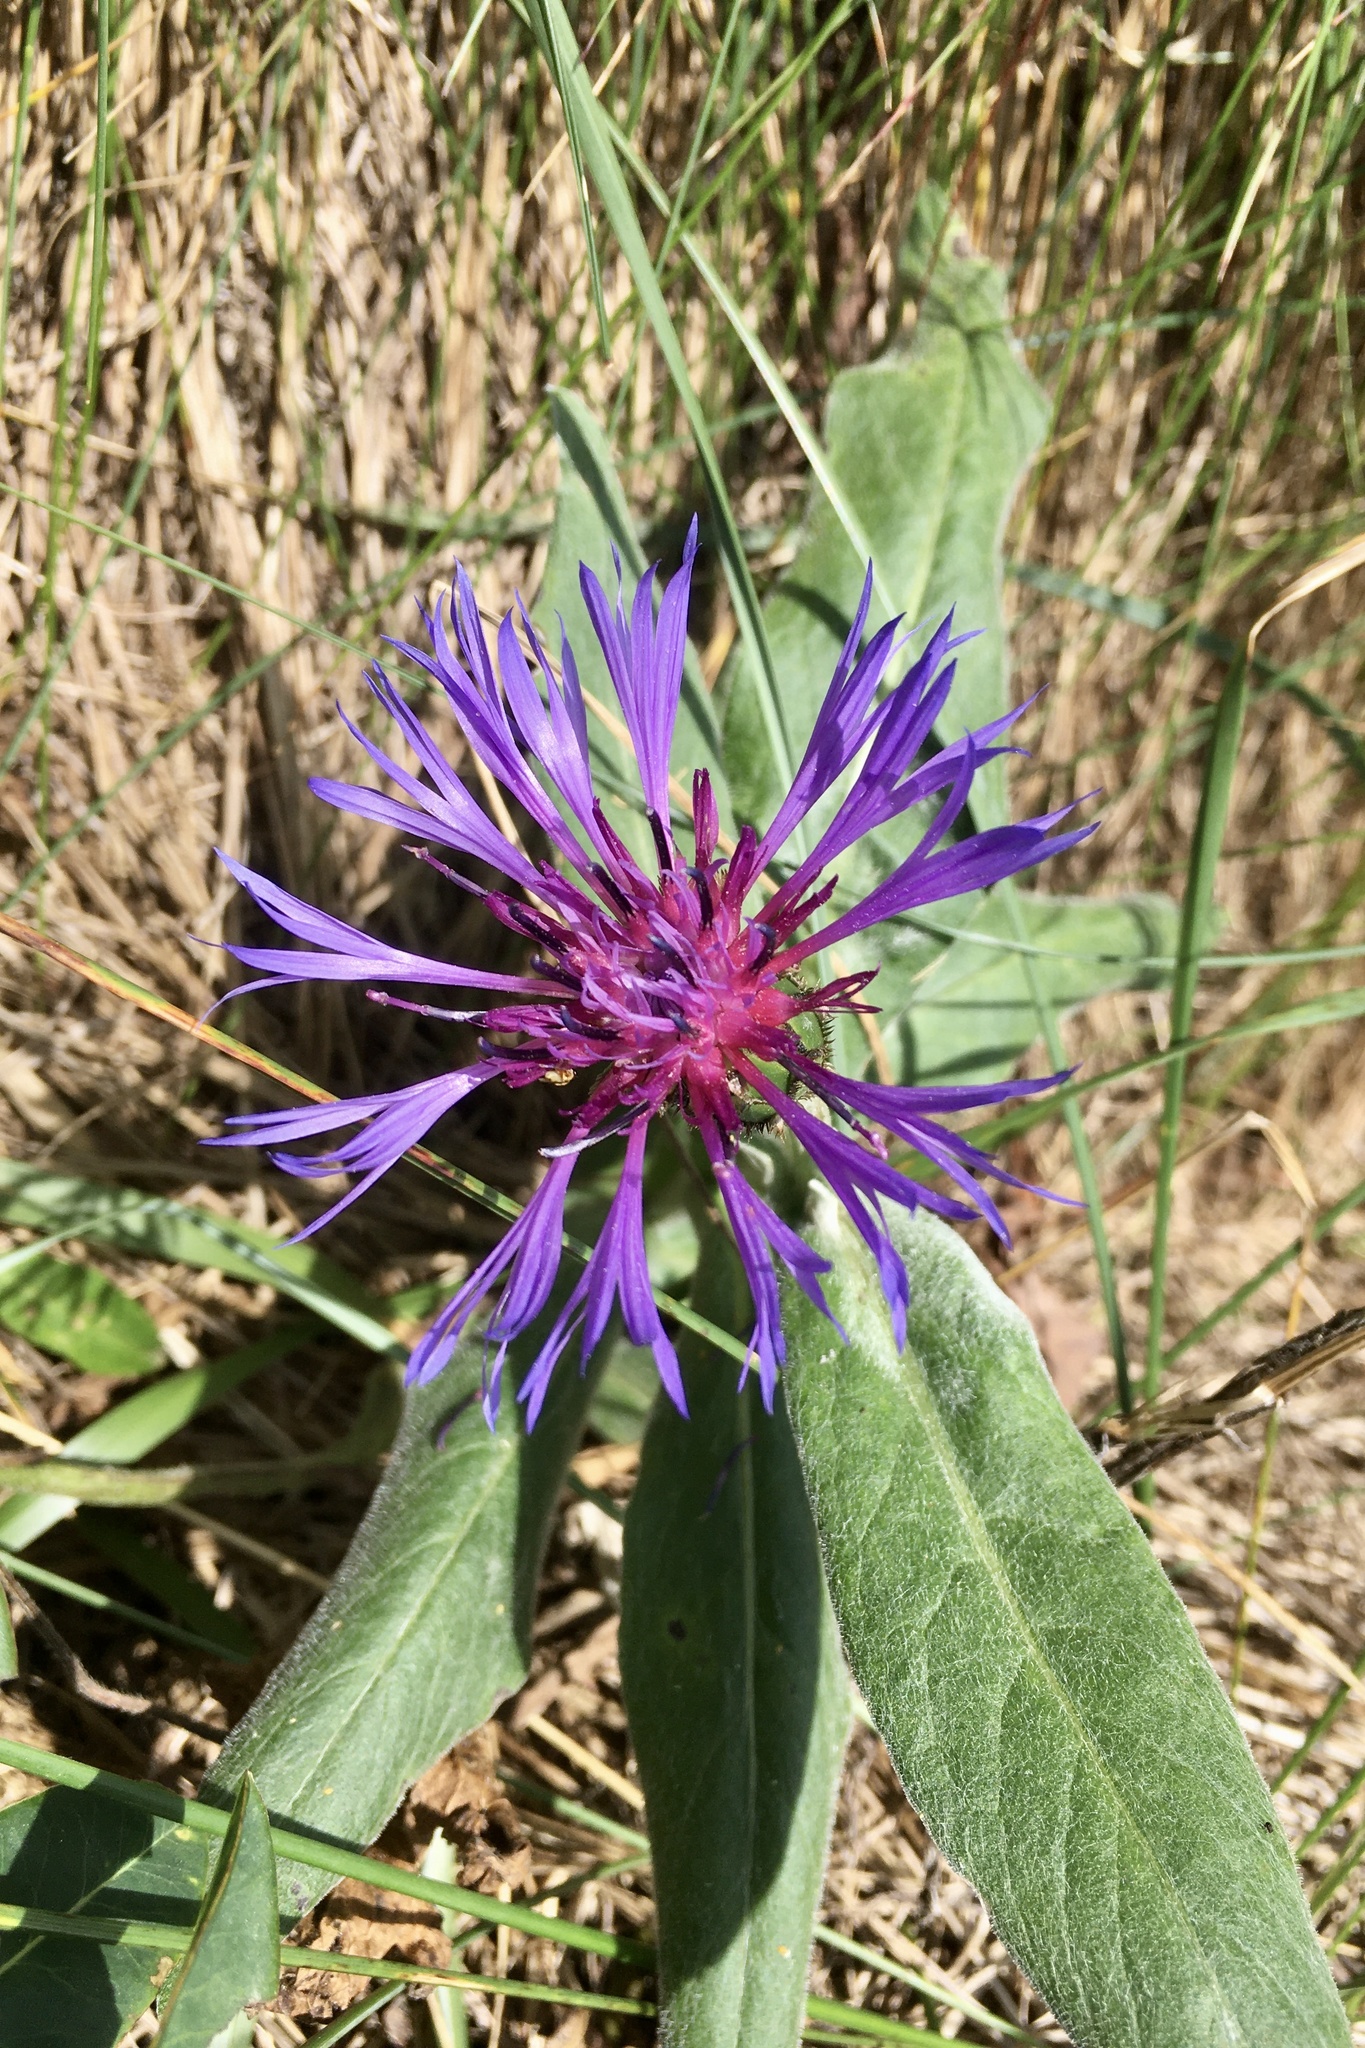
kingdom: Plantae
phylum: Tracheophyta
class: Magnoliopsida
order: Asterales
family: Asteraceae
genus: Centaurea
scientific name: Centaurea montana
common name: Perennial cornflower
